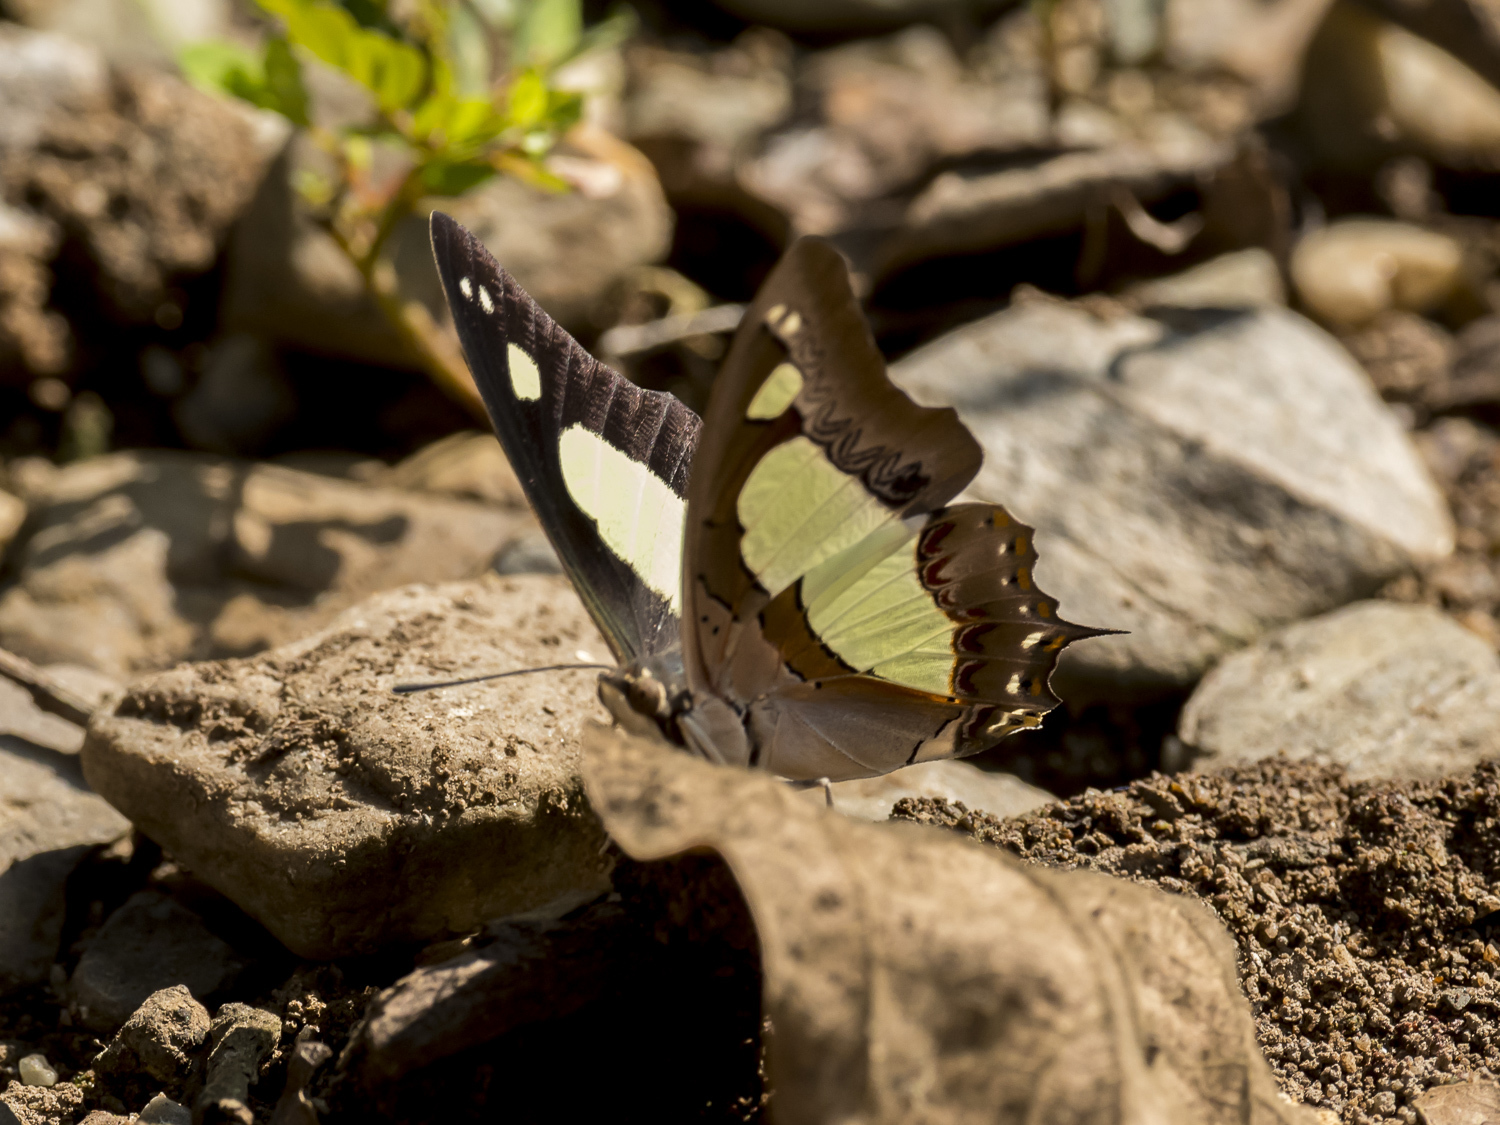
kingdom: Animalia
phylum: Arthropoda
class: Insecta
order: Lepidoptera
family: Nymphalidae
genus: Polyura
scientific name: Polyura agrarius
